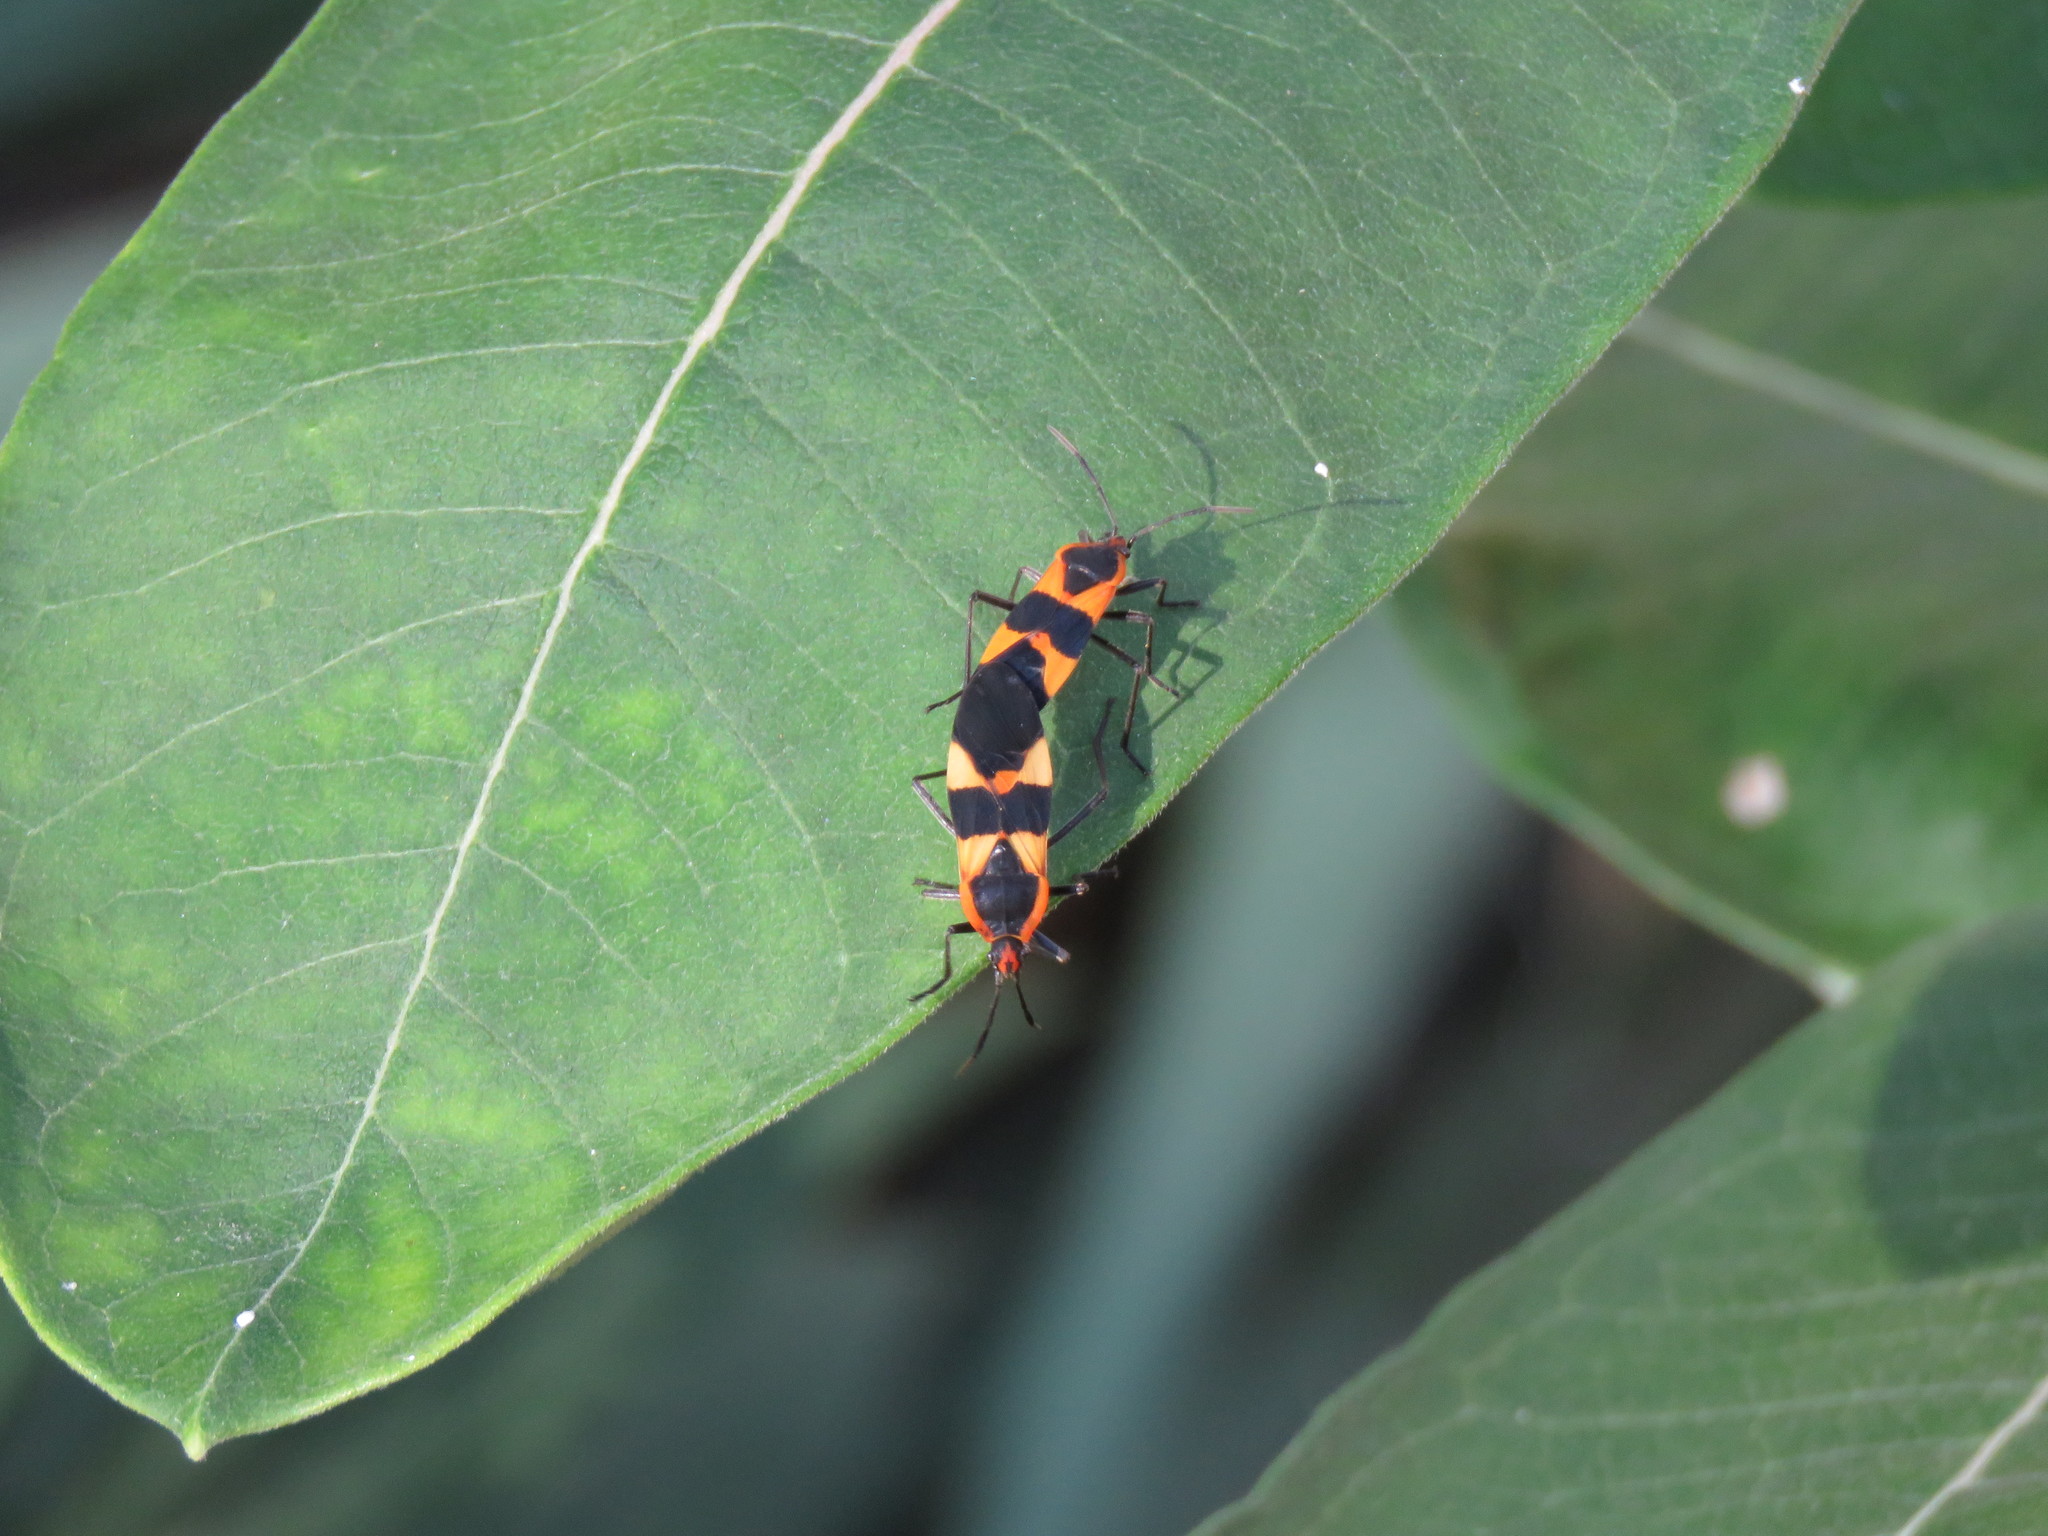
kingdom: Animalia
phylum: Arthropoda
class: Insecta
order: Hemiptera
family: Lygaeidae
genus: Oncopeltus
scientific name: Oncopeltus fasciatus
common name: Large milkweed bug
